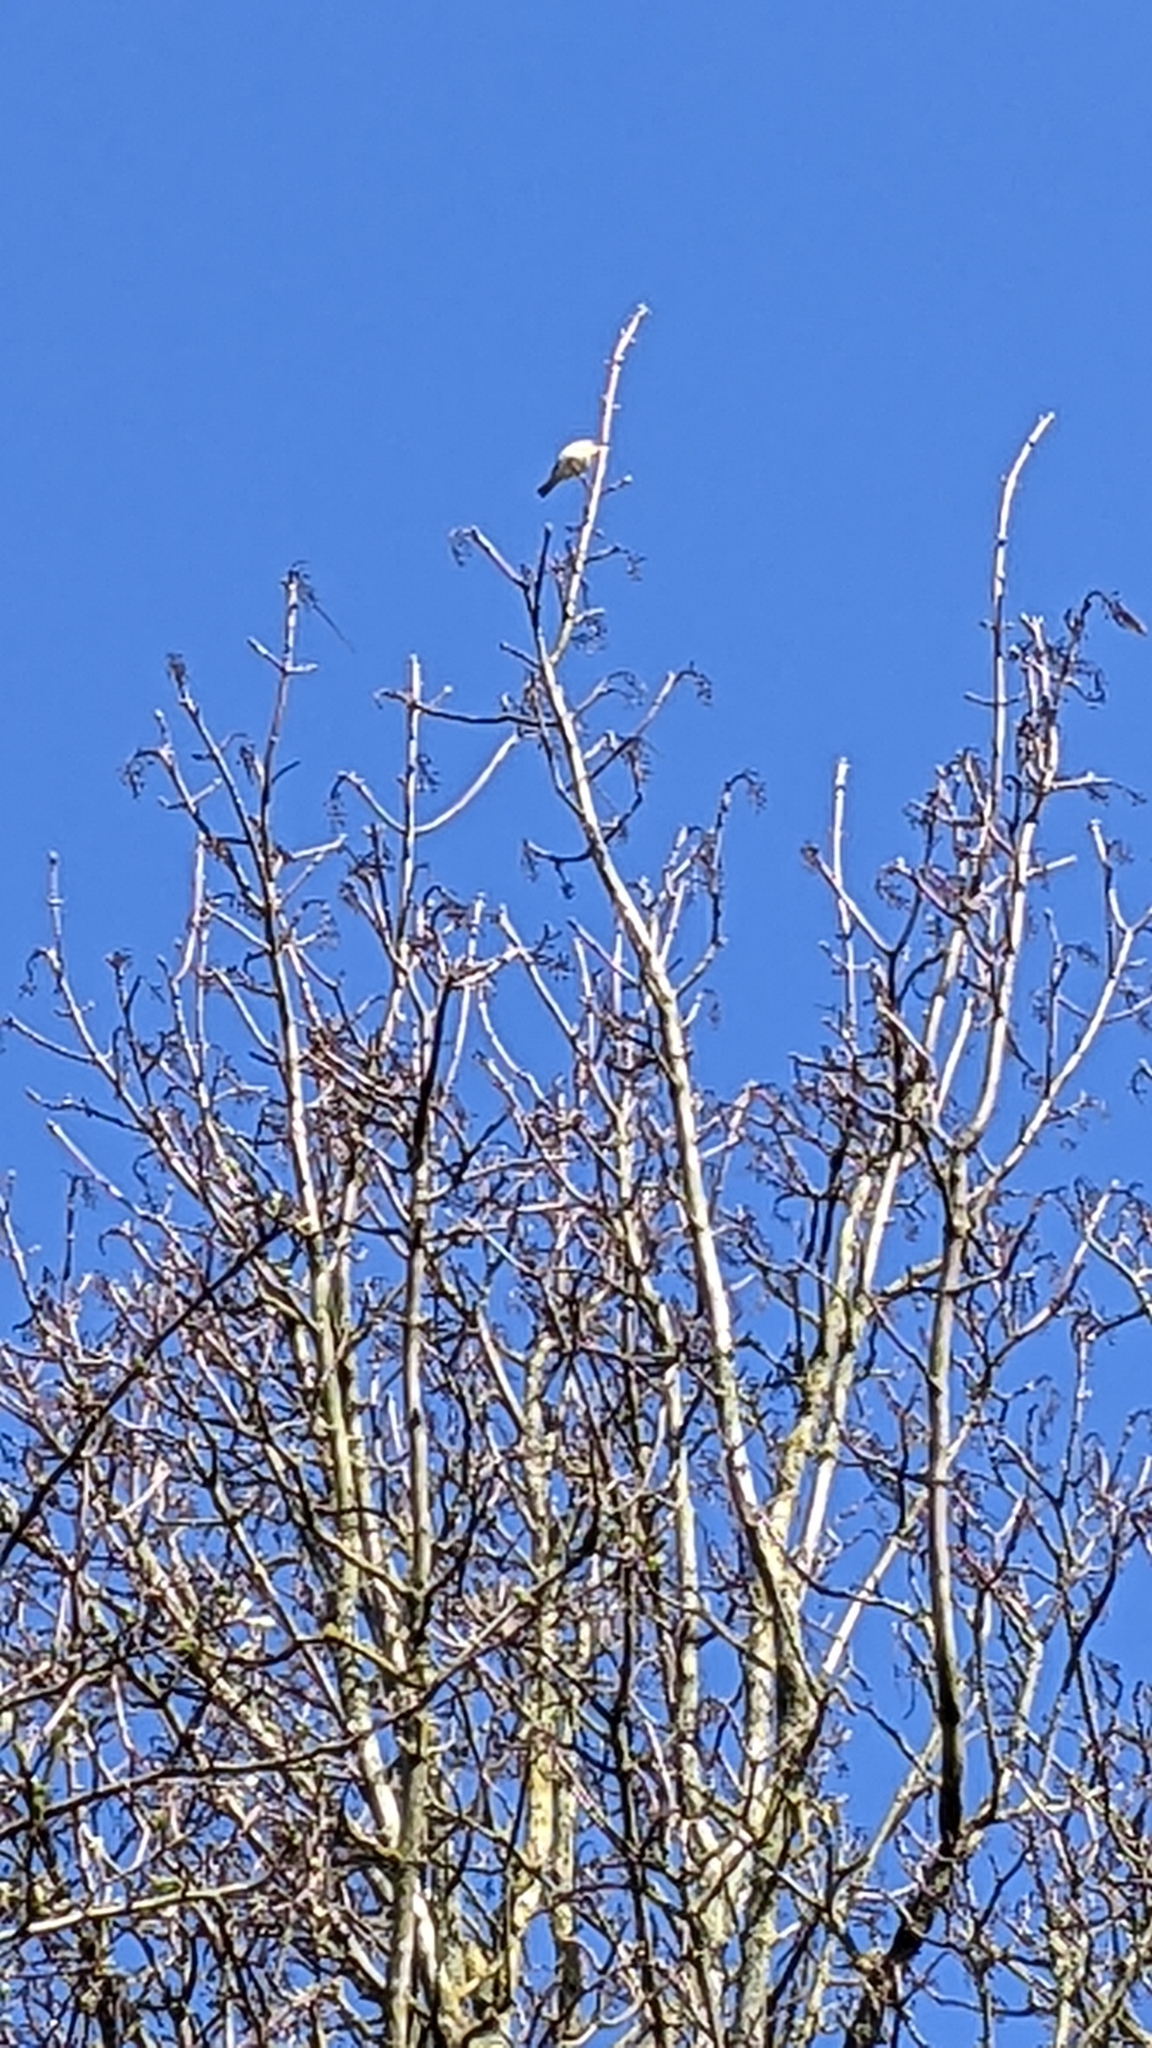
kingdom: Animalia
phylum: Chordata
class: Aves
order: Passeriformes
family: Phylloscopidae
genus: Phylloscopus
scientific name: Phylloscopus collybita
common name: Common chiffchaff
